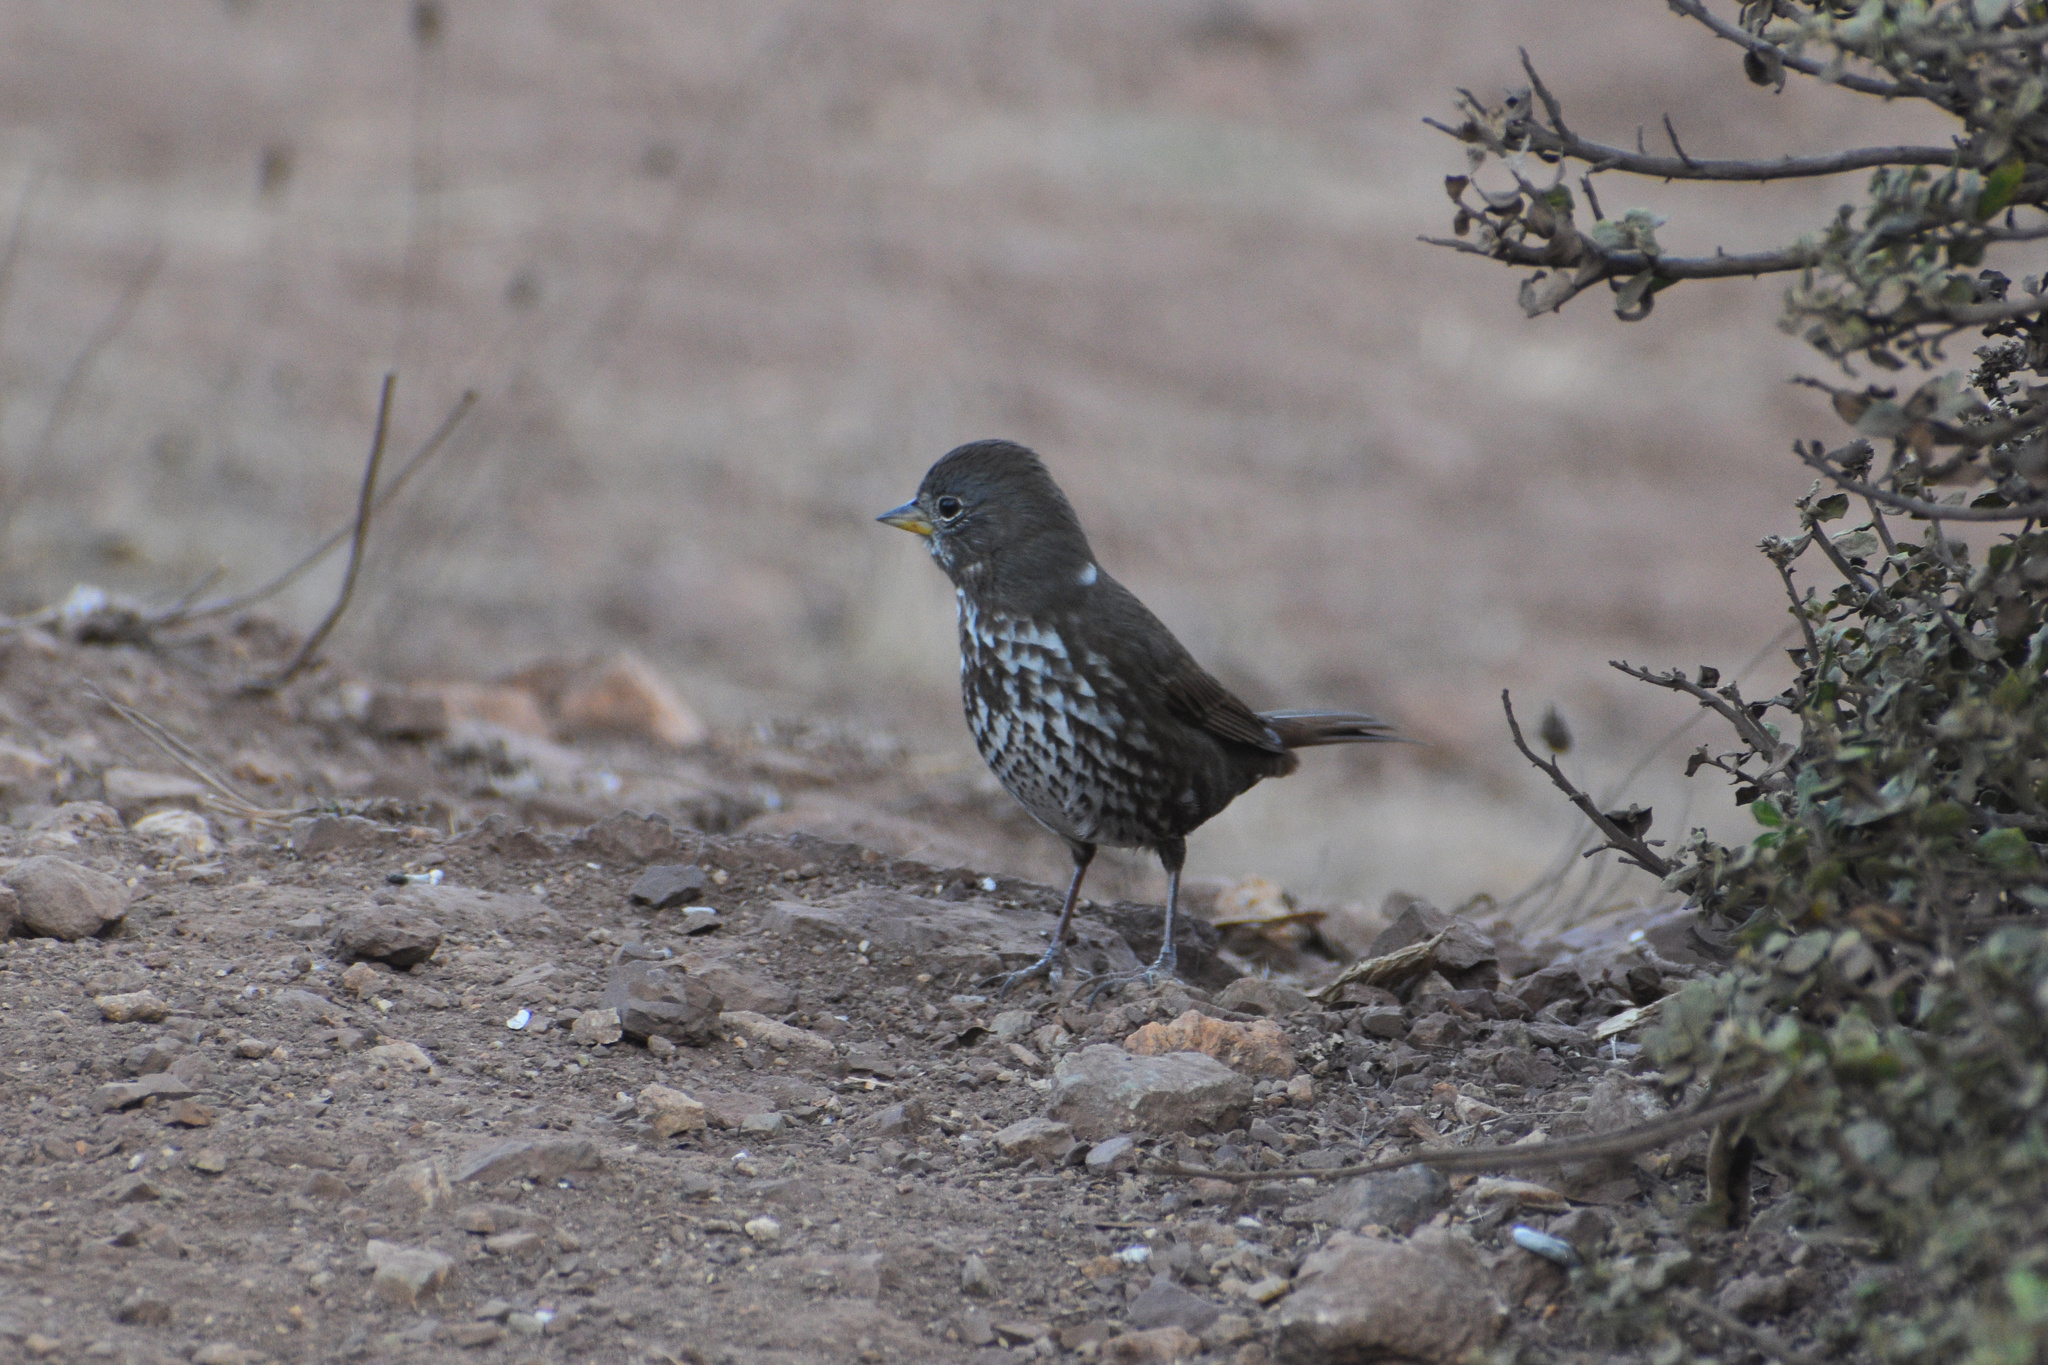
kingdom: Animalia
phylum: Chordata
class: Aves
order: Passeriformes
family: Passerellidae
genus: Passerella
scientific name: Passerella iliaca
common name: Fox sparrow
